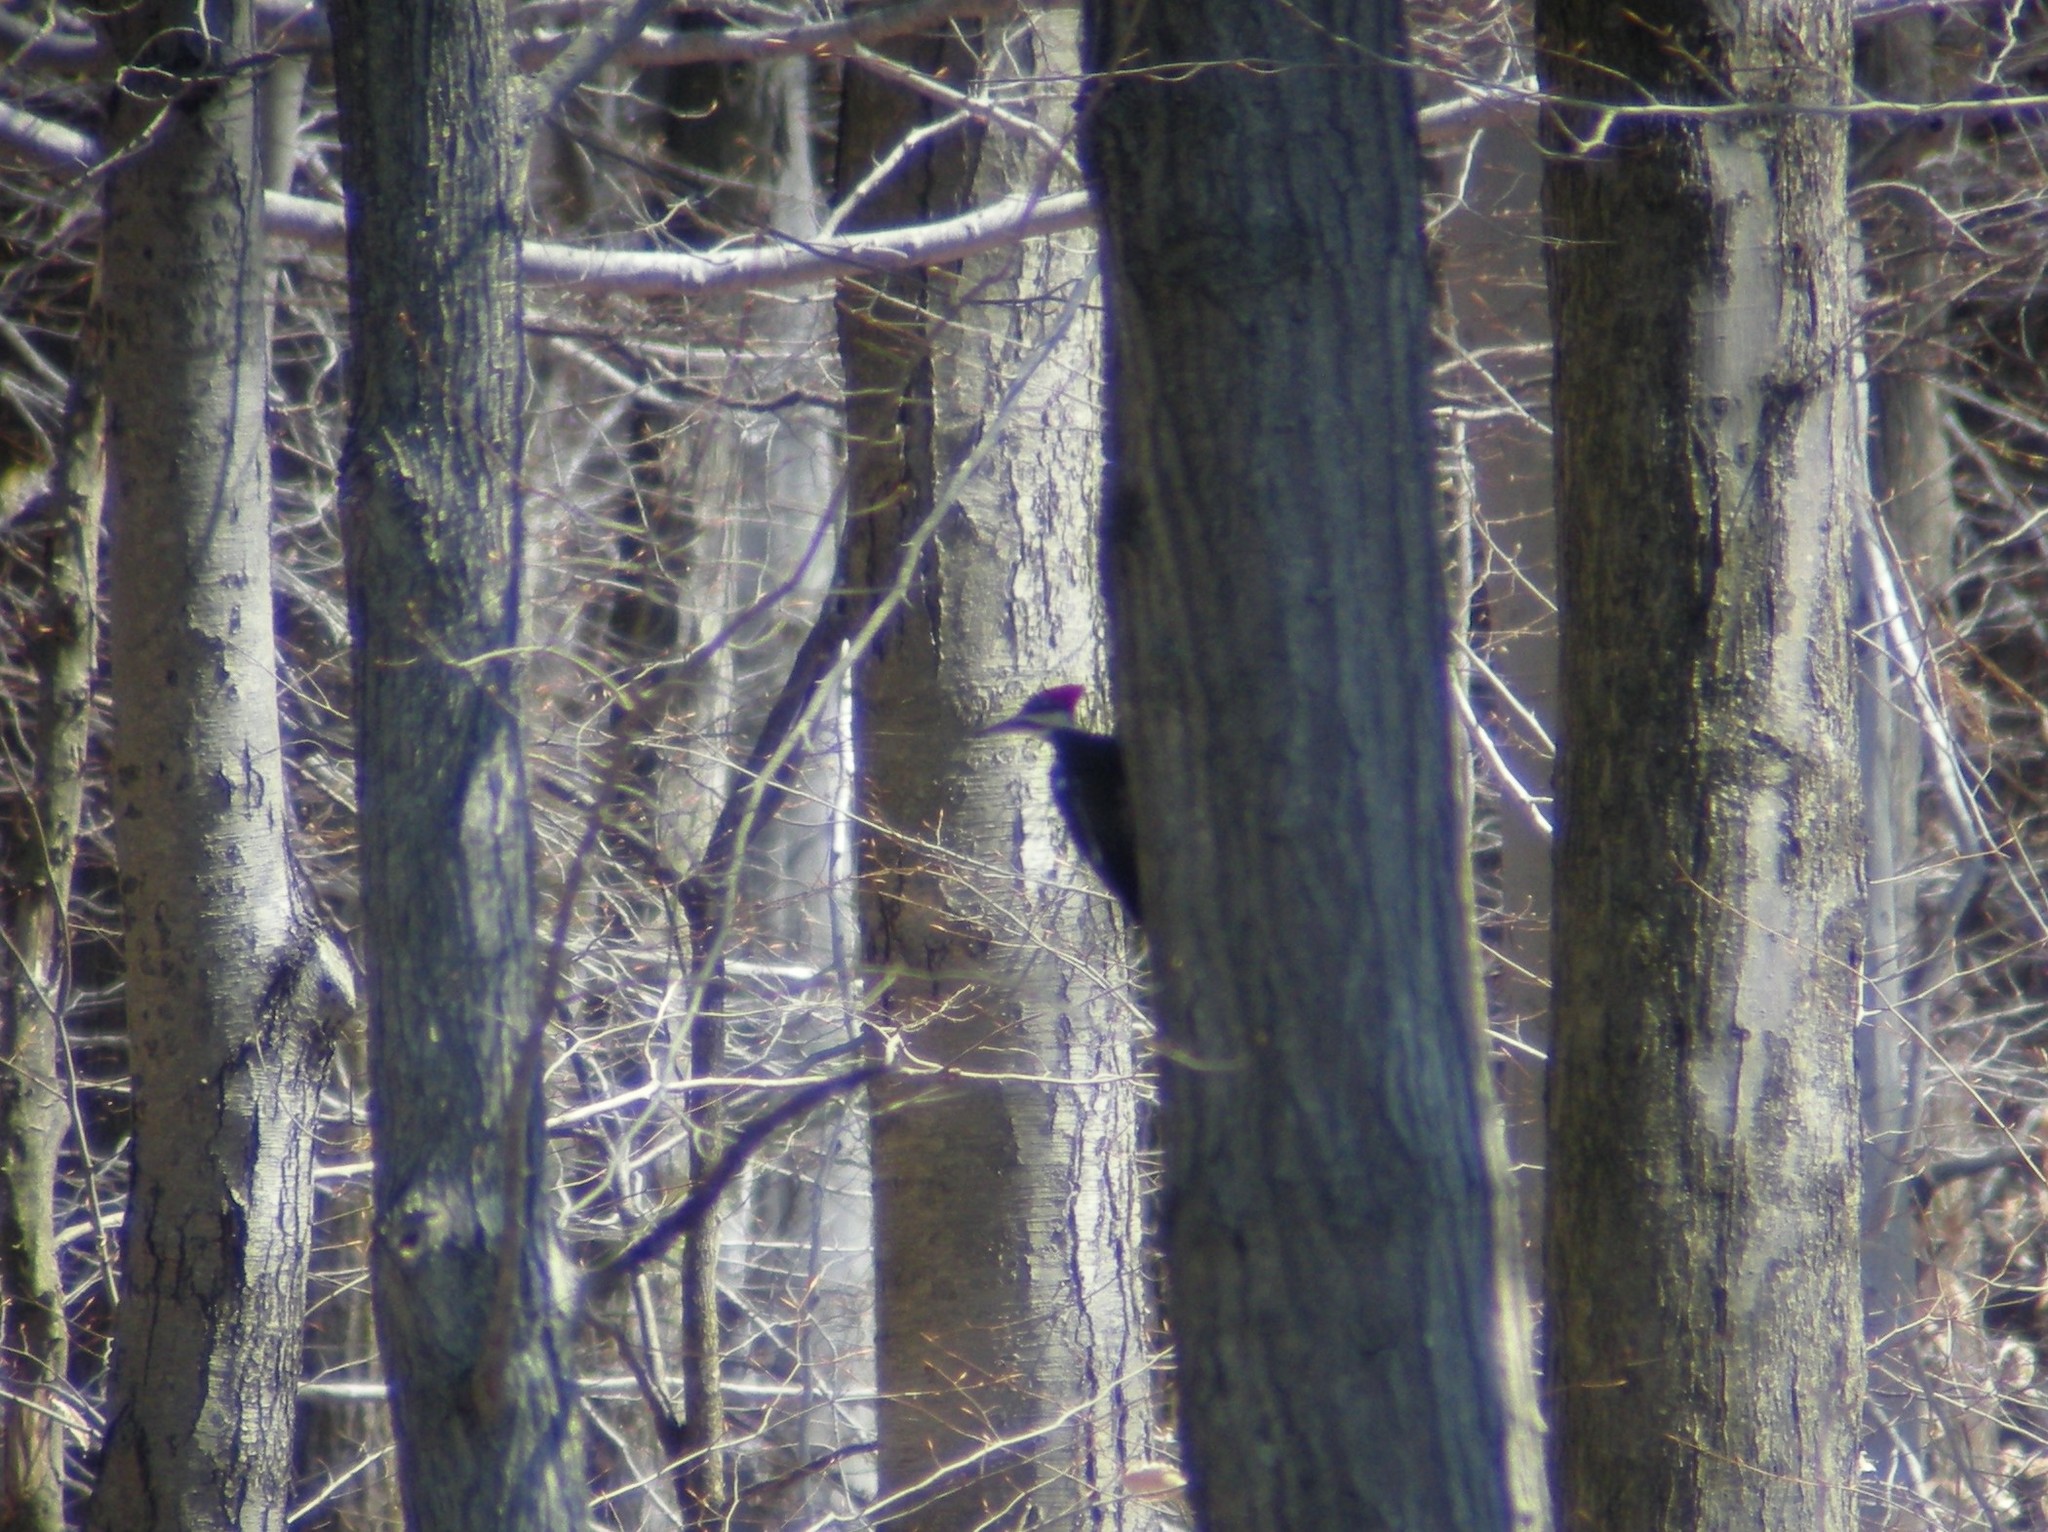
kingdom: Animalia
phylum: Chordata
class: Aves
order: Piciformes
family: Picidae
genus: Dryocopus
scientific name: Dryocopus pileatus
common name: Pileated woodpecker
